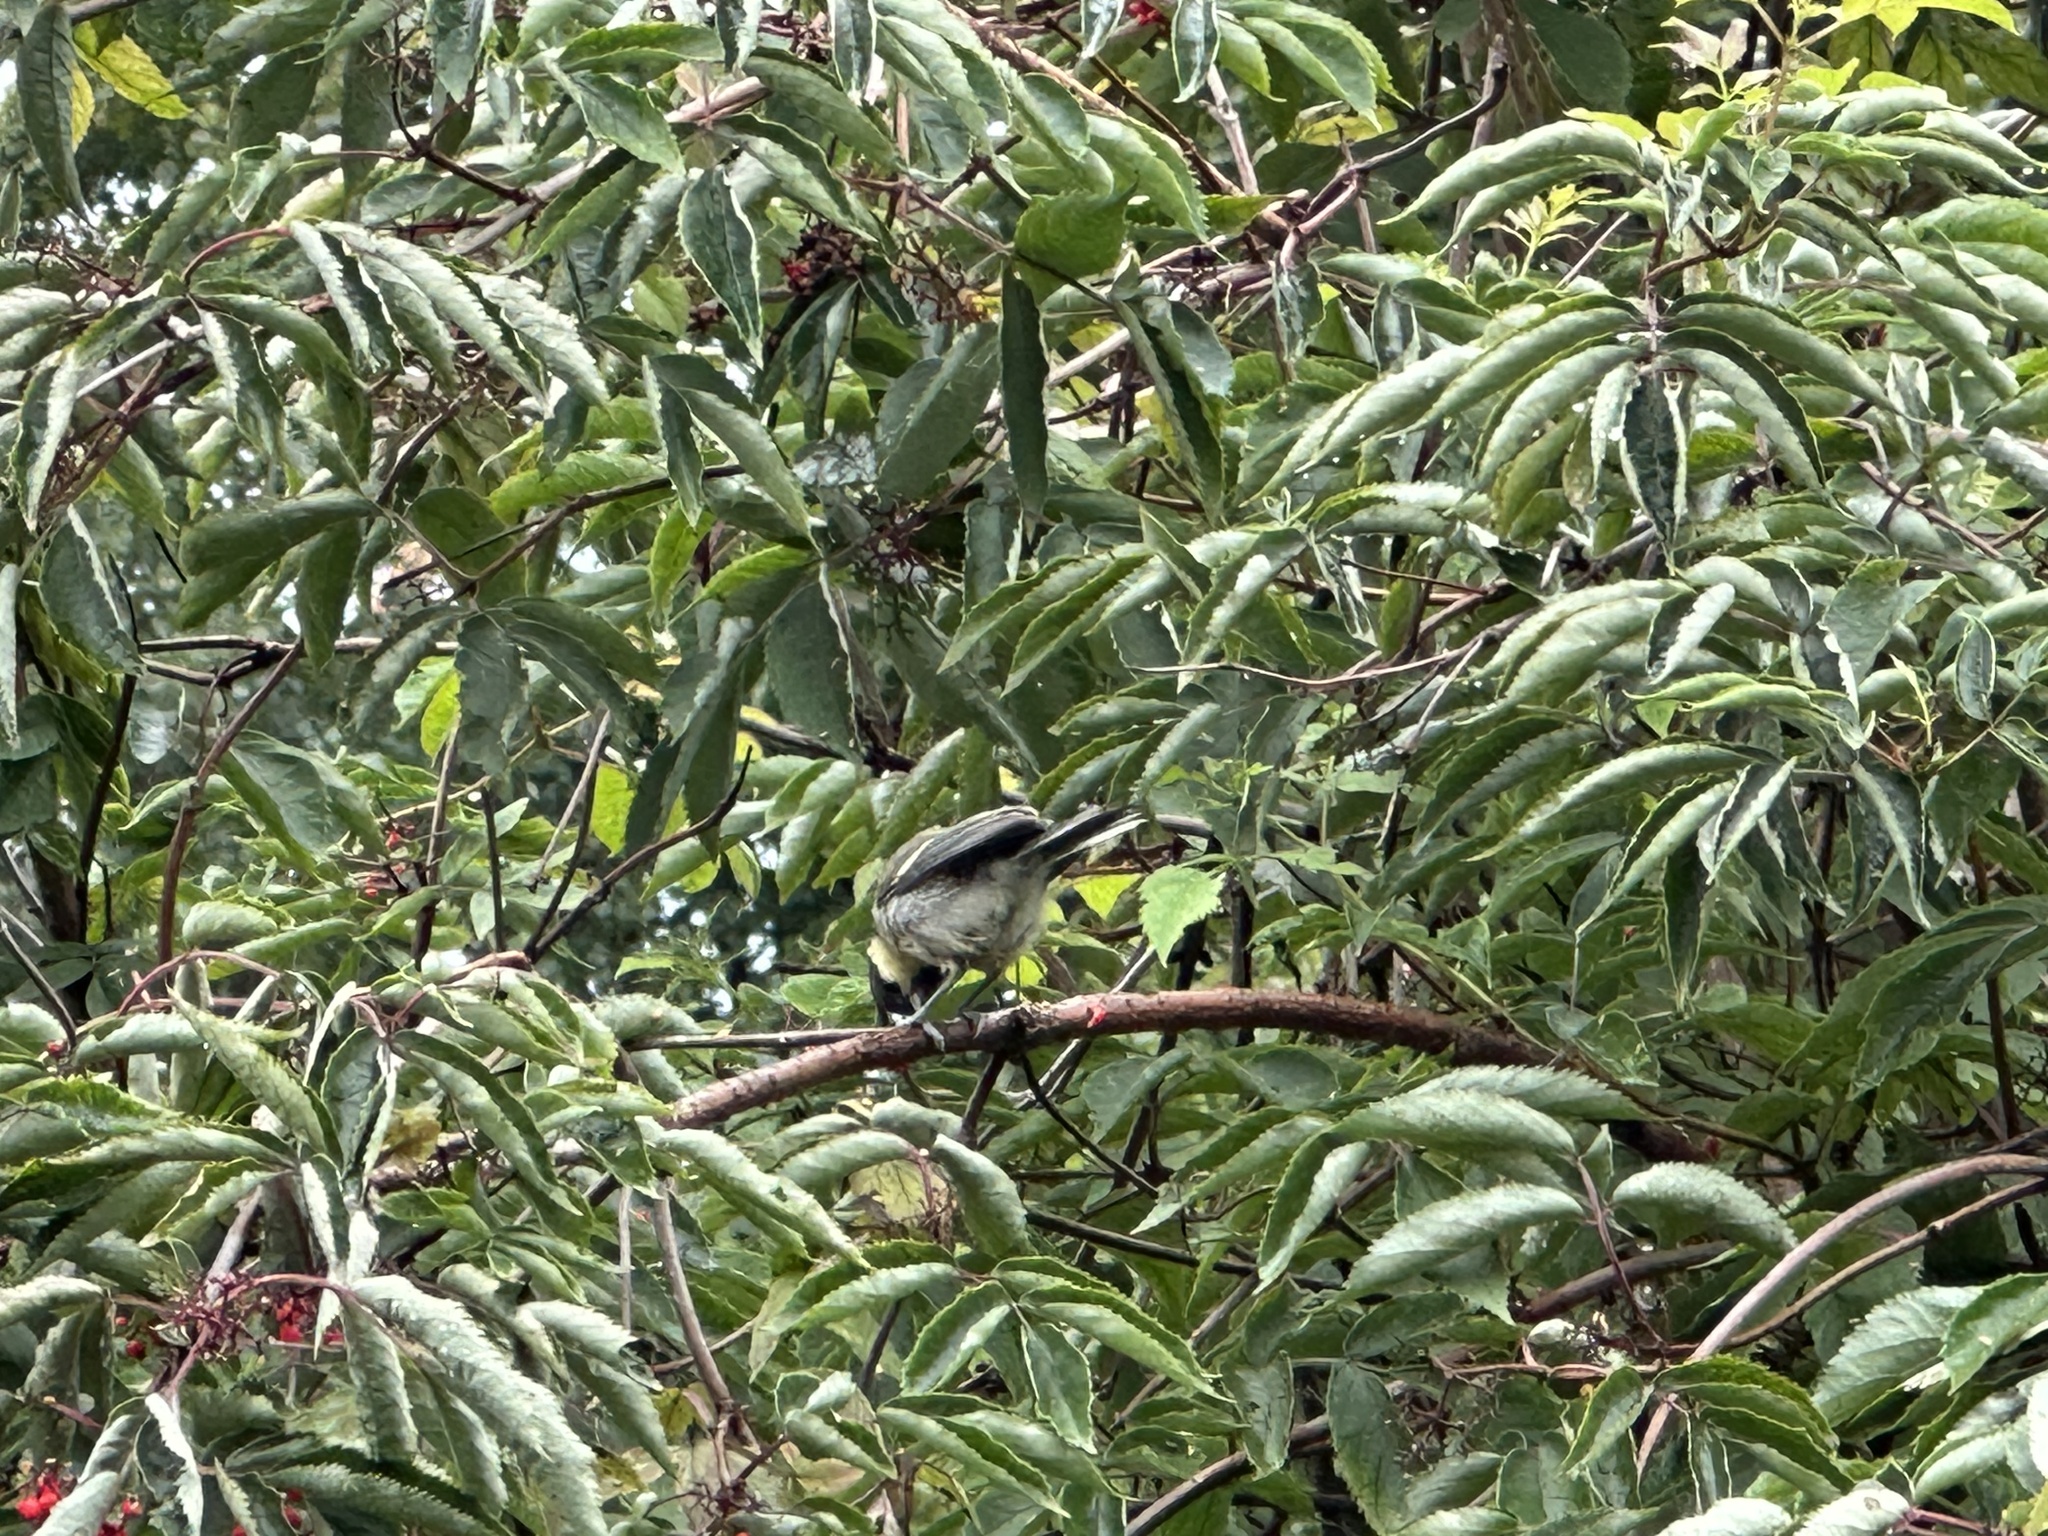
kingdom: Animalia
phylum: Chordata
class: Aves
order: Passeriformes
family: Paridae
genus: Parus
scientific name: Parus major
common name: Great tit
